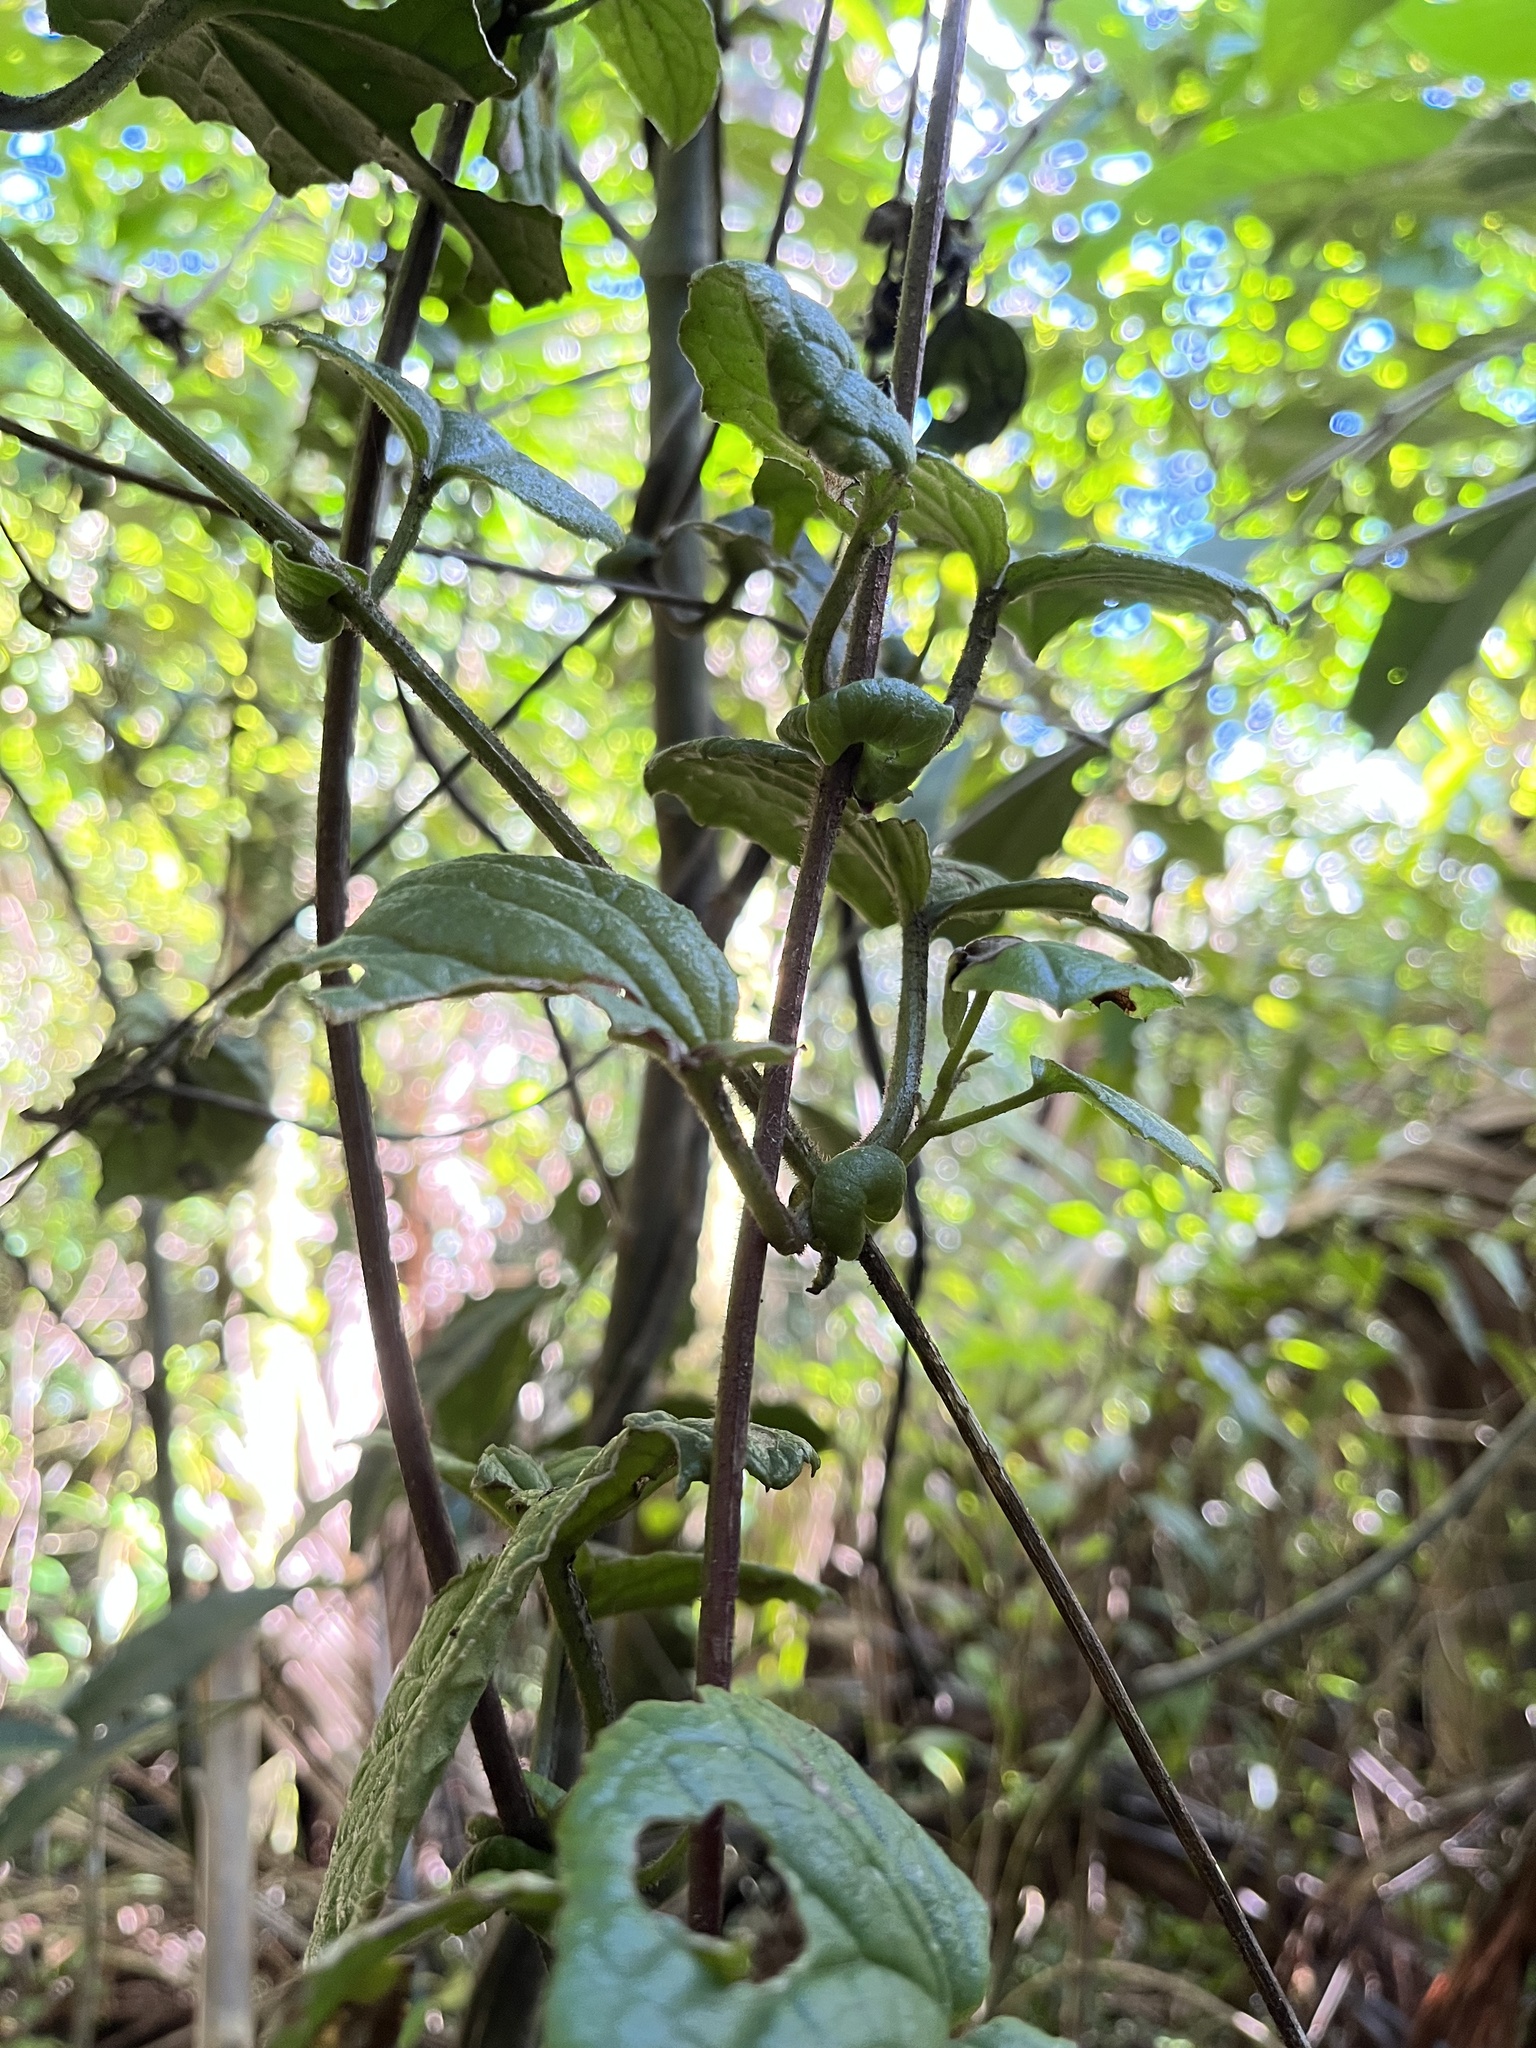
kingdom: Plantae
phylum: Tracheophyta
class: Magnoliopsida
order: Asterales
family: Asteraceae
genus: Mikania
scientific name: Mikania fragilis
